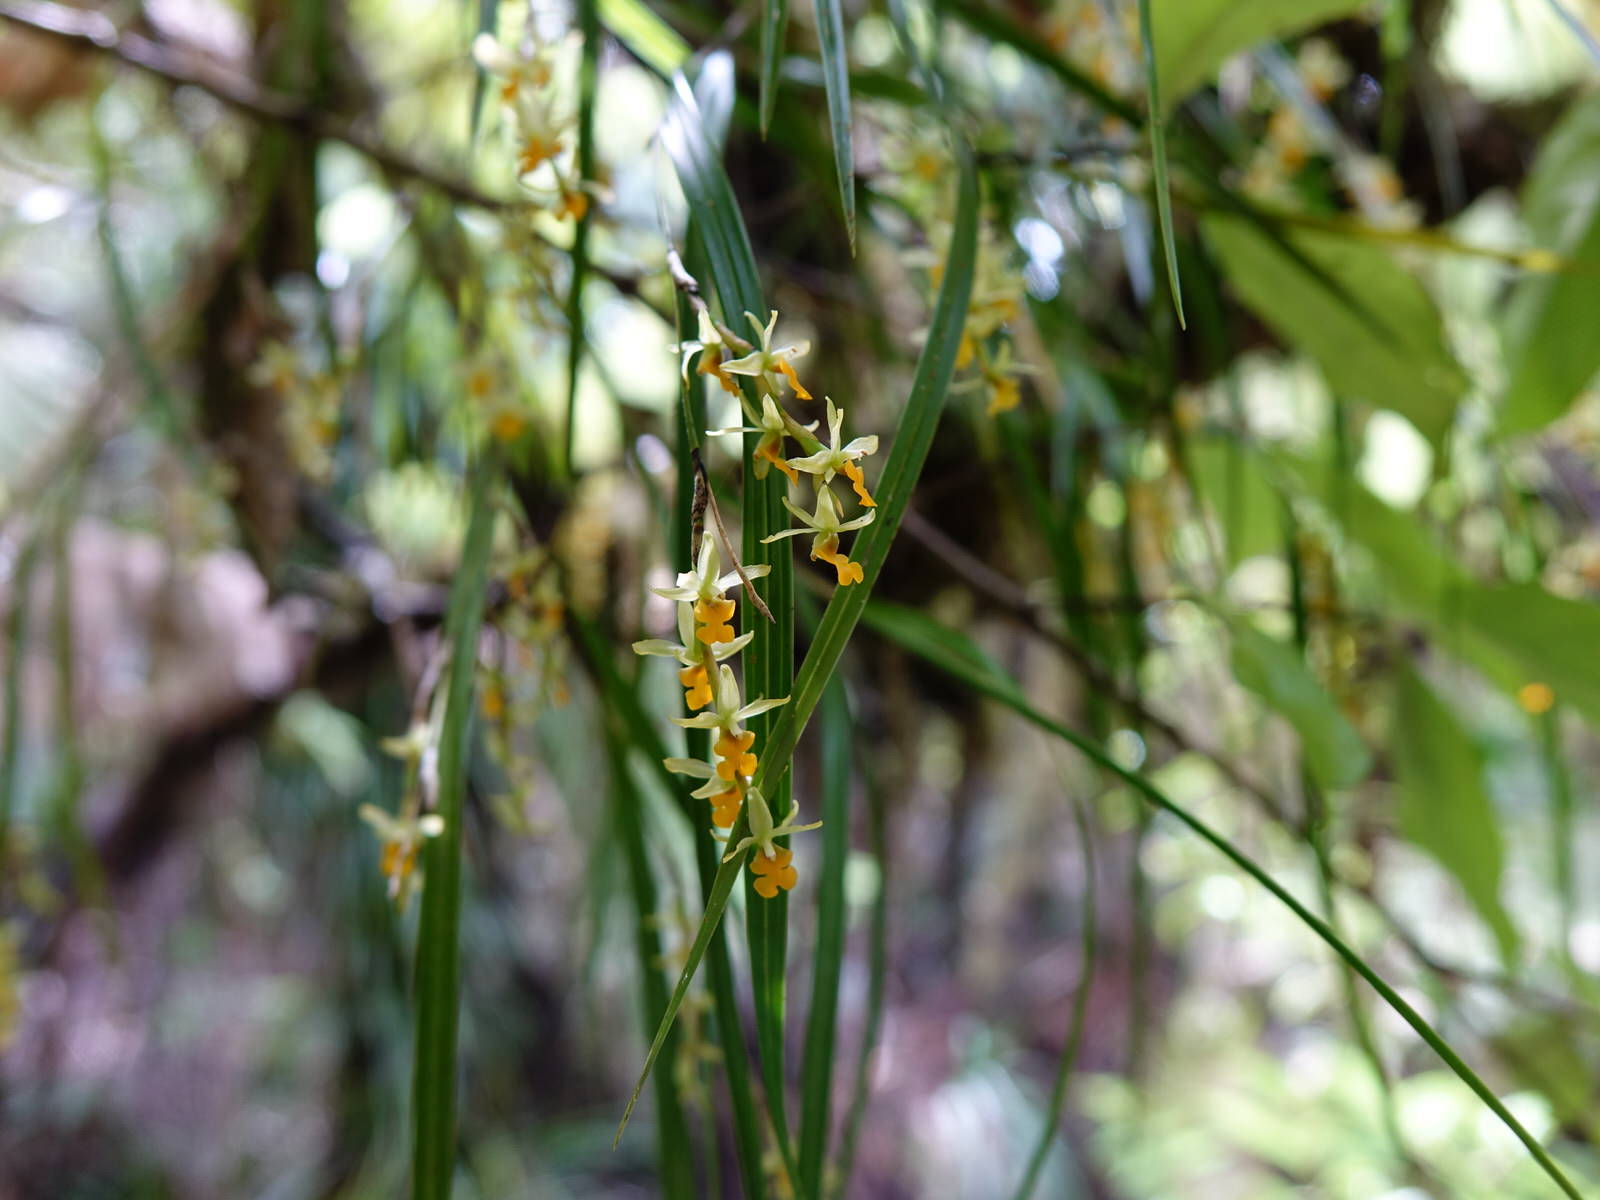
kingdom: Plantae
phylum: Tracheophyta
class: Liliopsida
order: Asparagales
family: Orchidaceae
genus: Earina
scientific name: Earina mucronata
